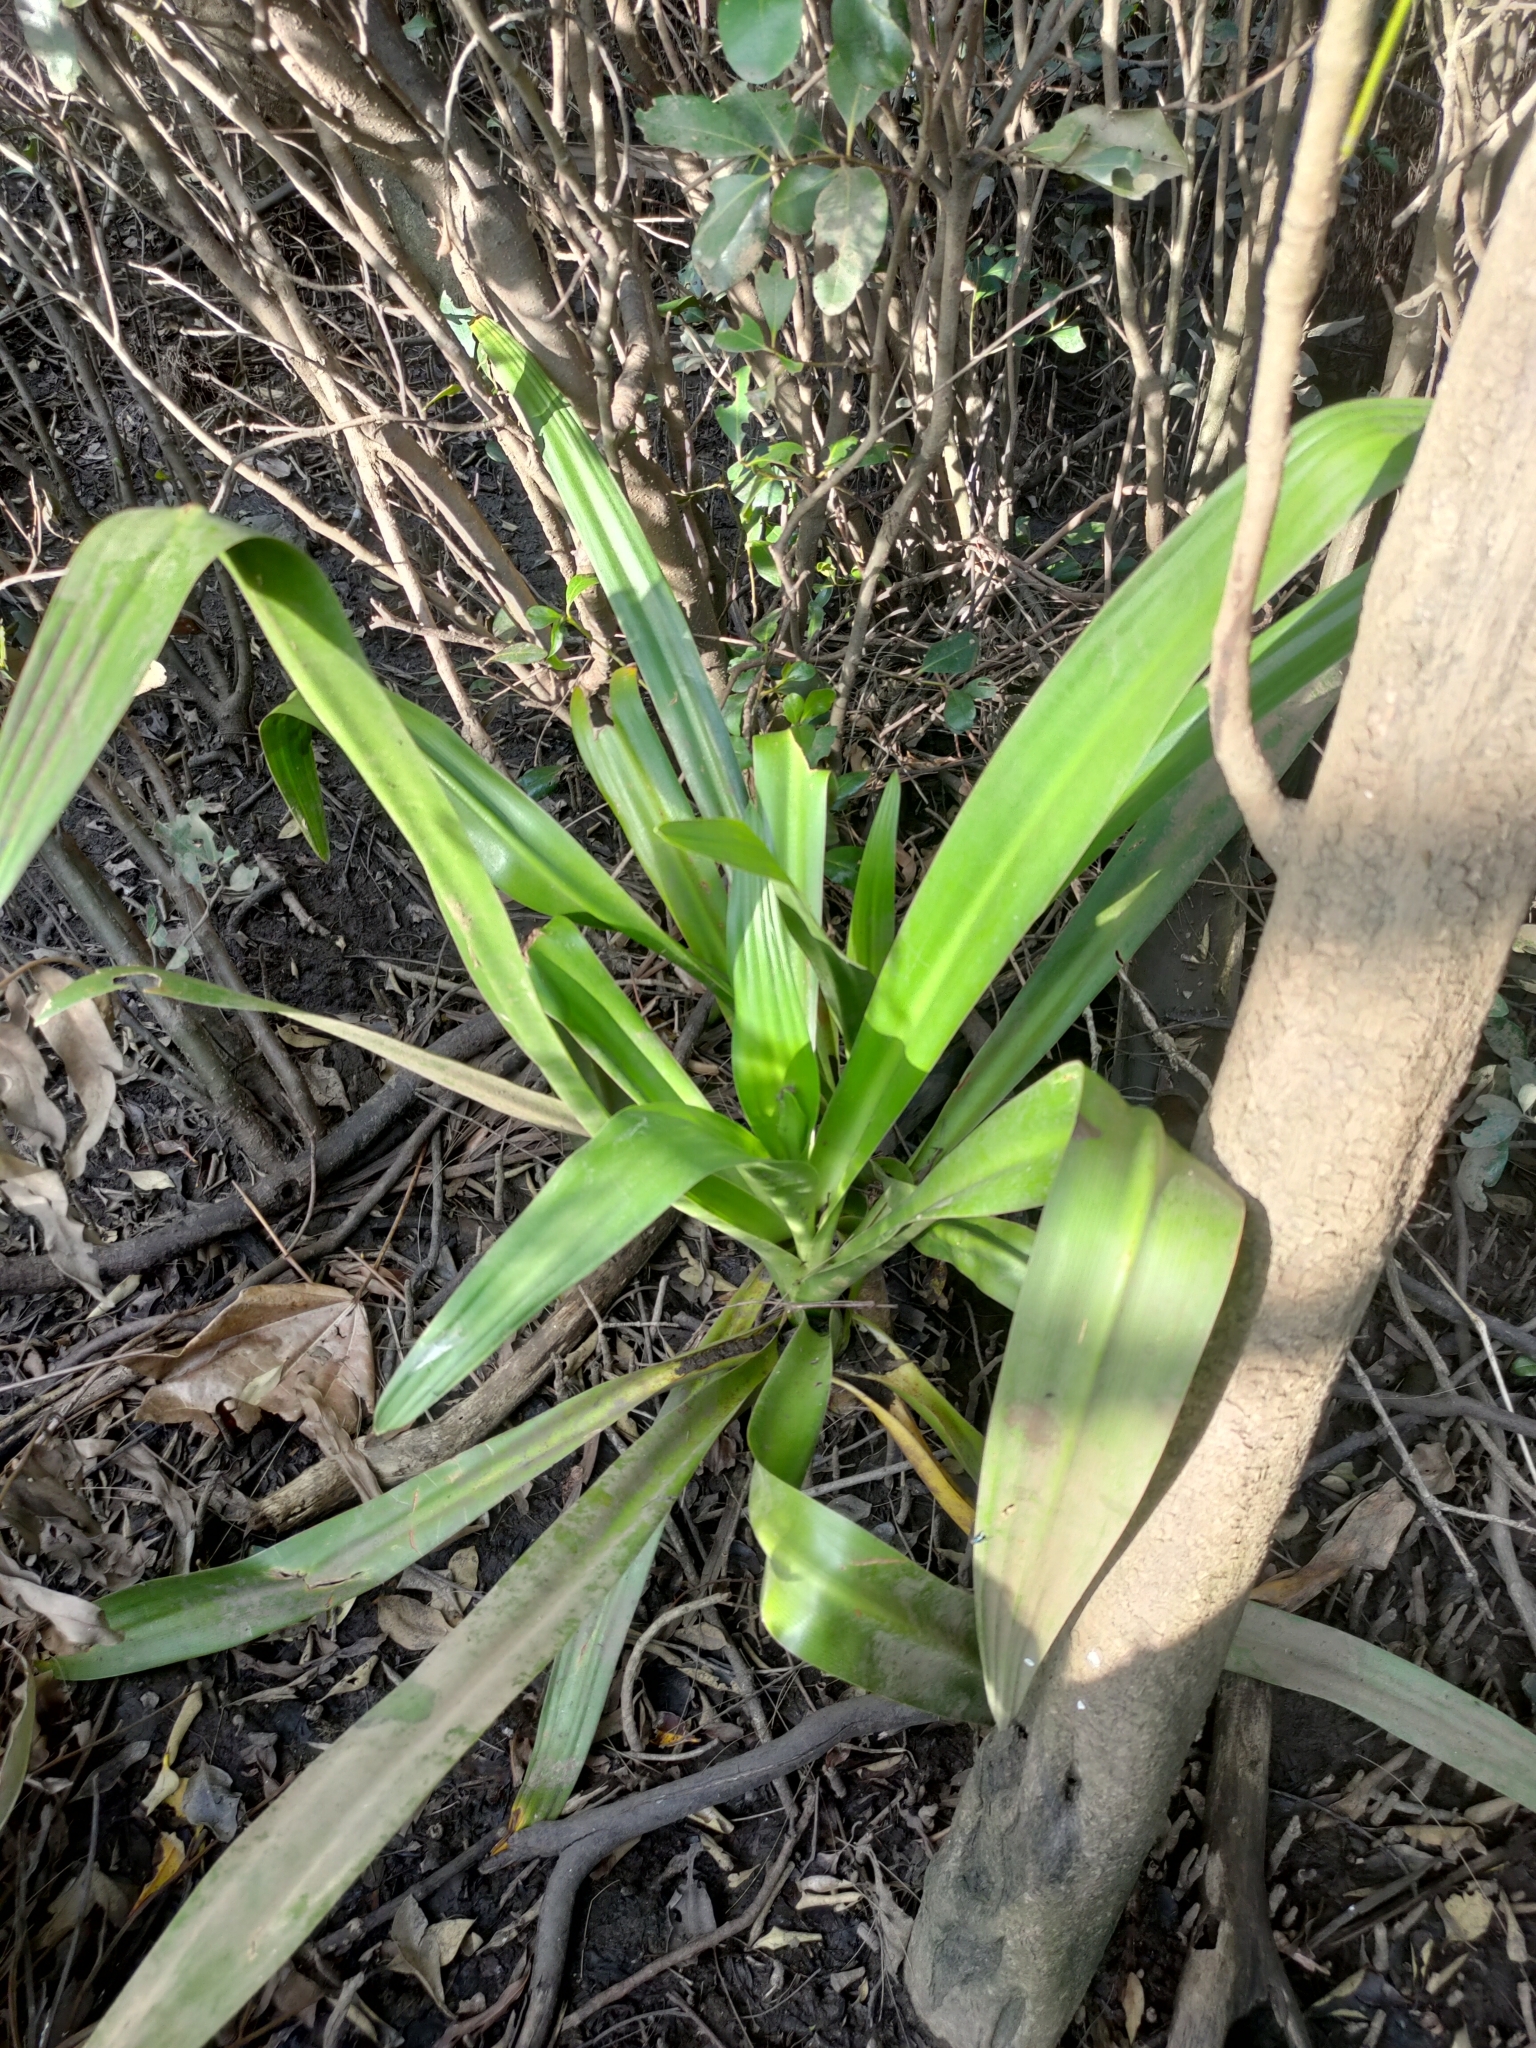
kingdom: Plantae
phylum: Tracheophyta
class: Liliopsida
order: Asparagales
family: Amaryllidaceae
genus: Crinum
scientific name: Crinum pedunculatum
